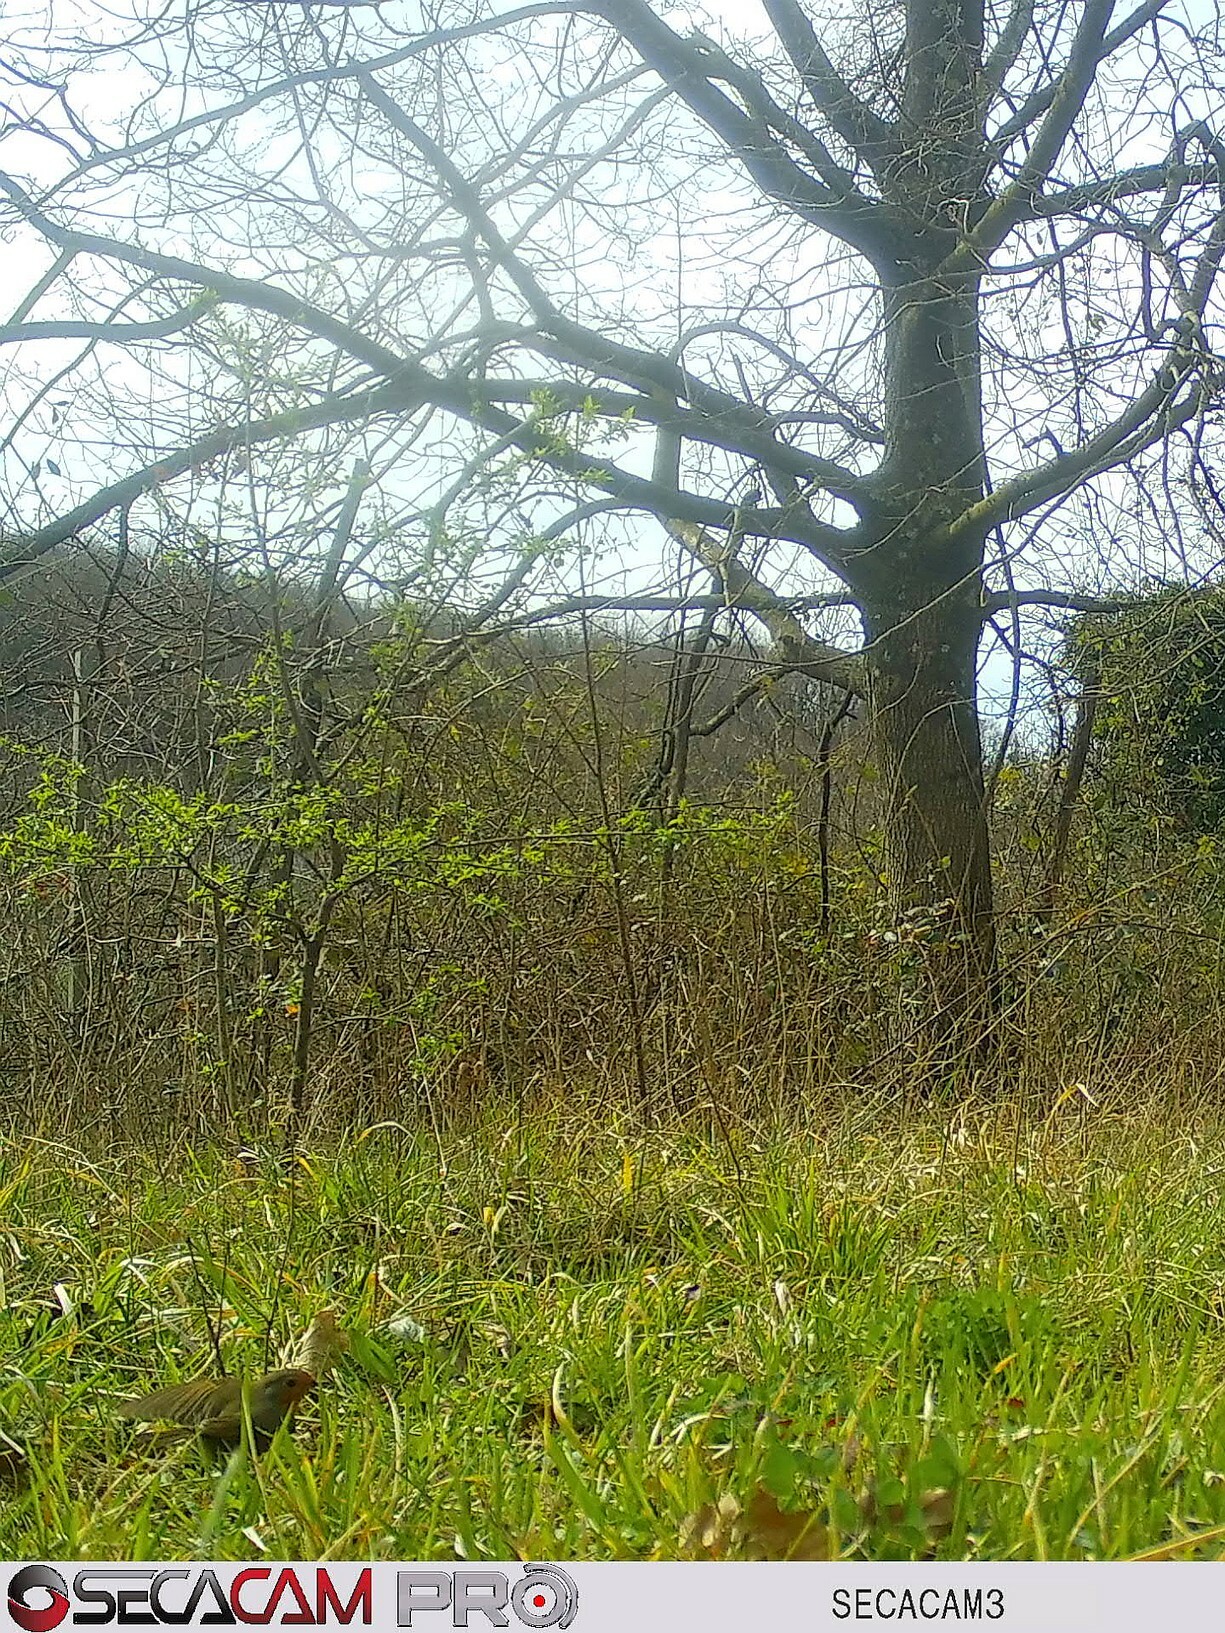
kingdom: Animalia
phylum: Chordata
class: Aves
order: Passeriformes
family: Muscicapidae
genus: Erithacus
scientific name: Erithacus rubecula
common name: European robin
